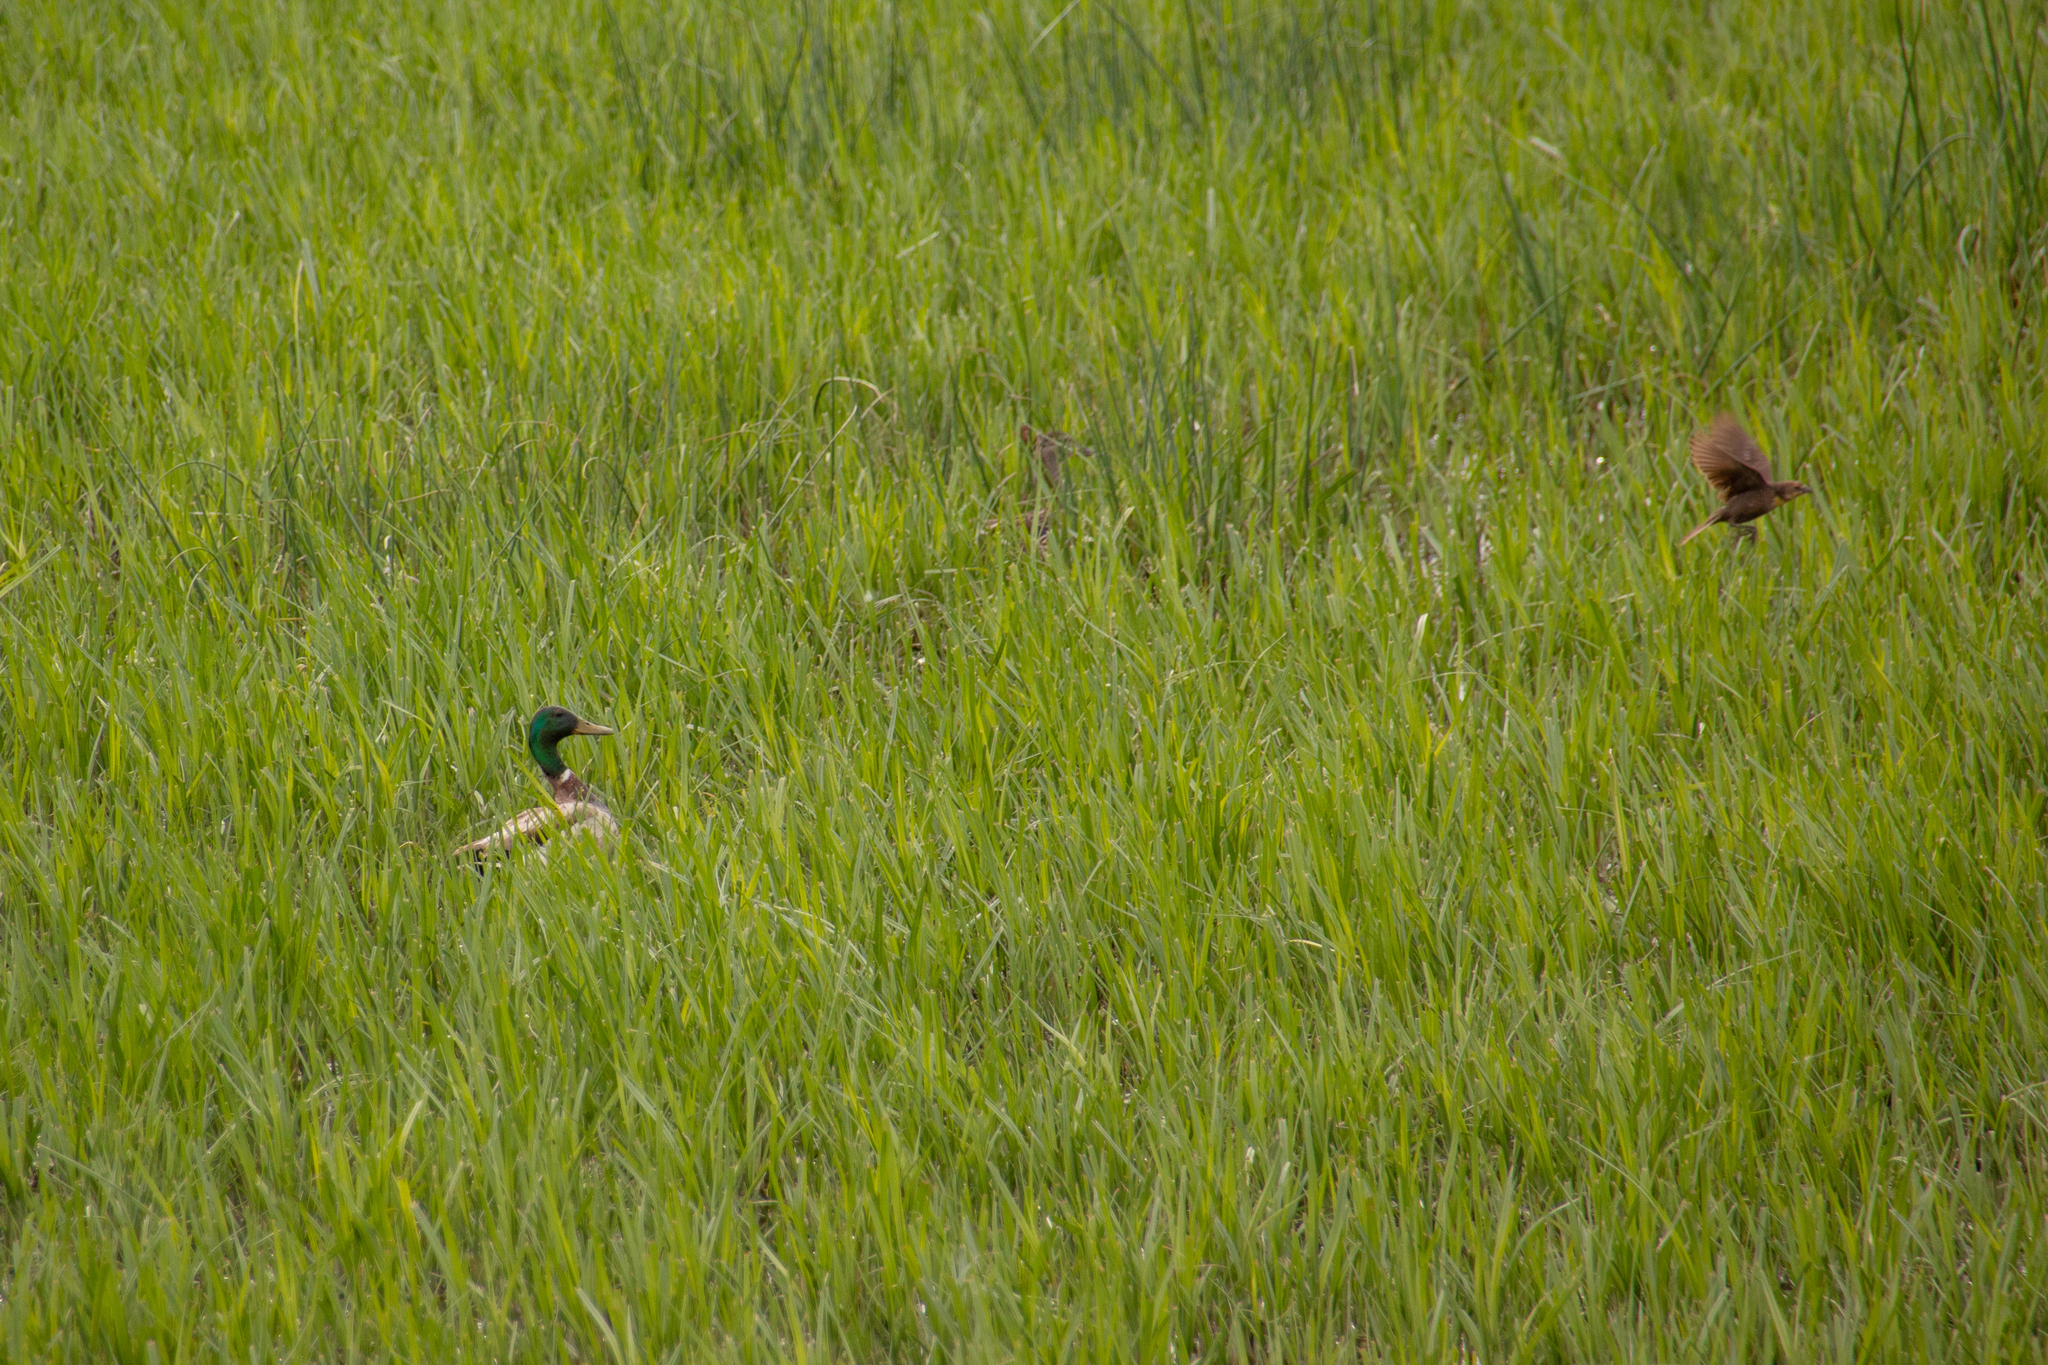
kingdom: Animalia
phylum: Chordata
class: Aves
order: Anseriformes
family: Anatidae
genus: Anas
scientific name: Anas platyrhynchos
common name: Mallard
